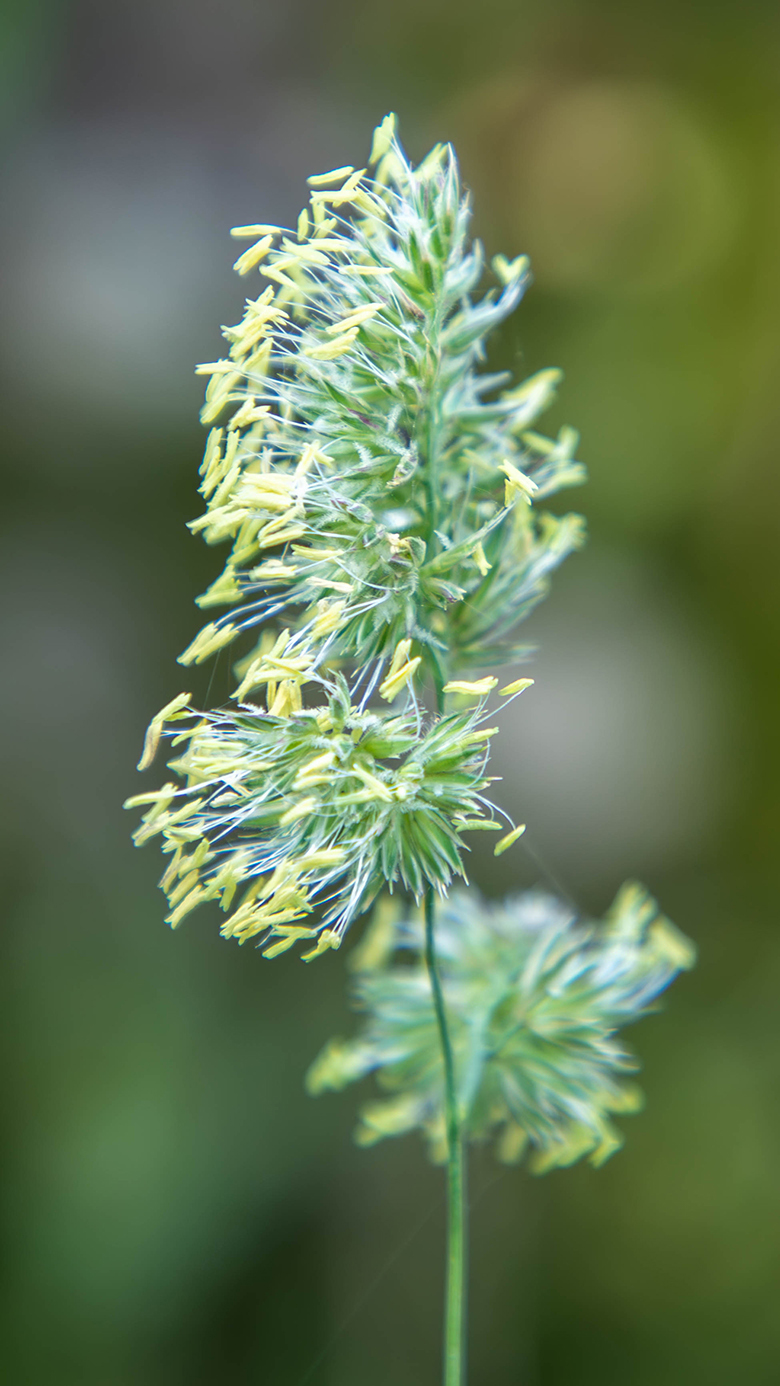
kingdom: Plantae
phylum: Tracheophyta
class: Liliopsida
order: Poales
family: Poaceae
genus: Dactylis
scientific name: Dactylis glomerata
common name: Orchardgrass
